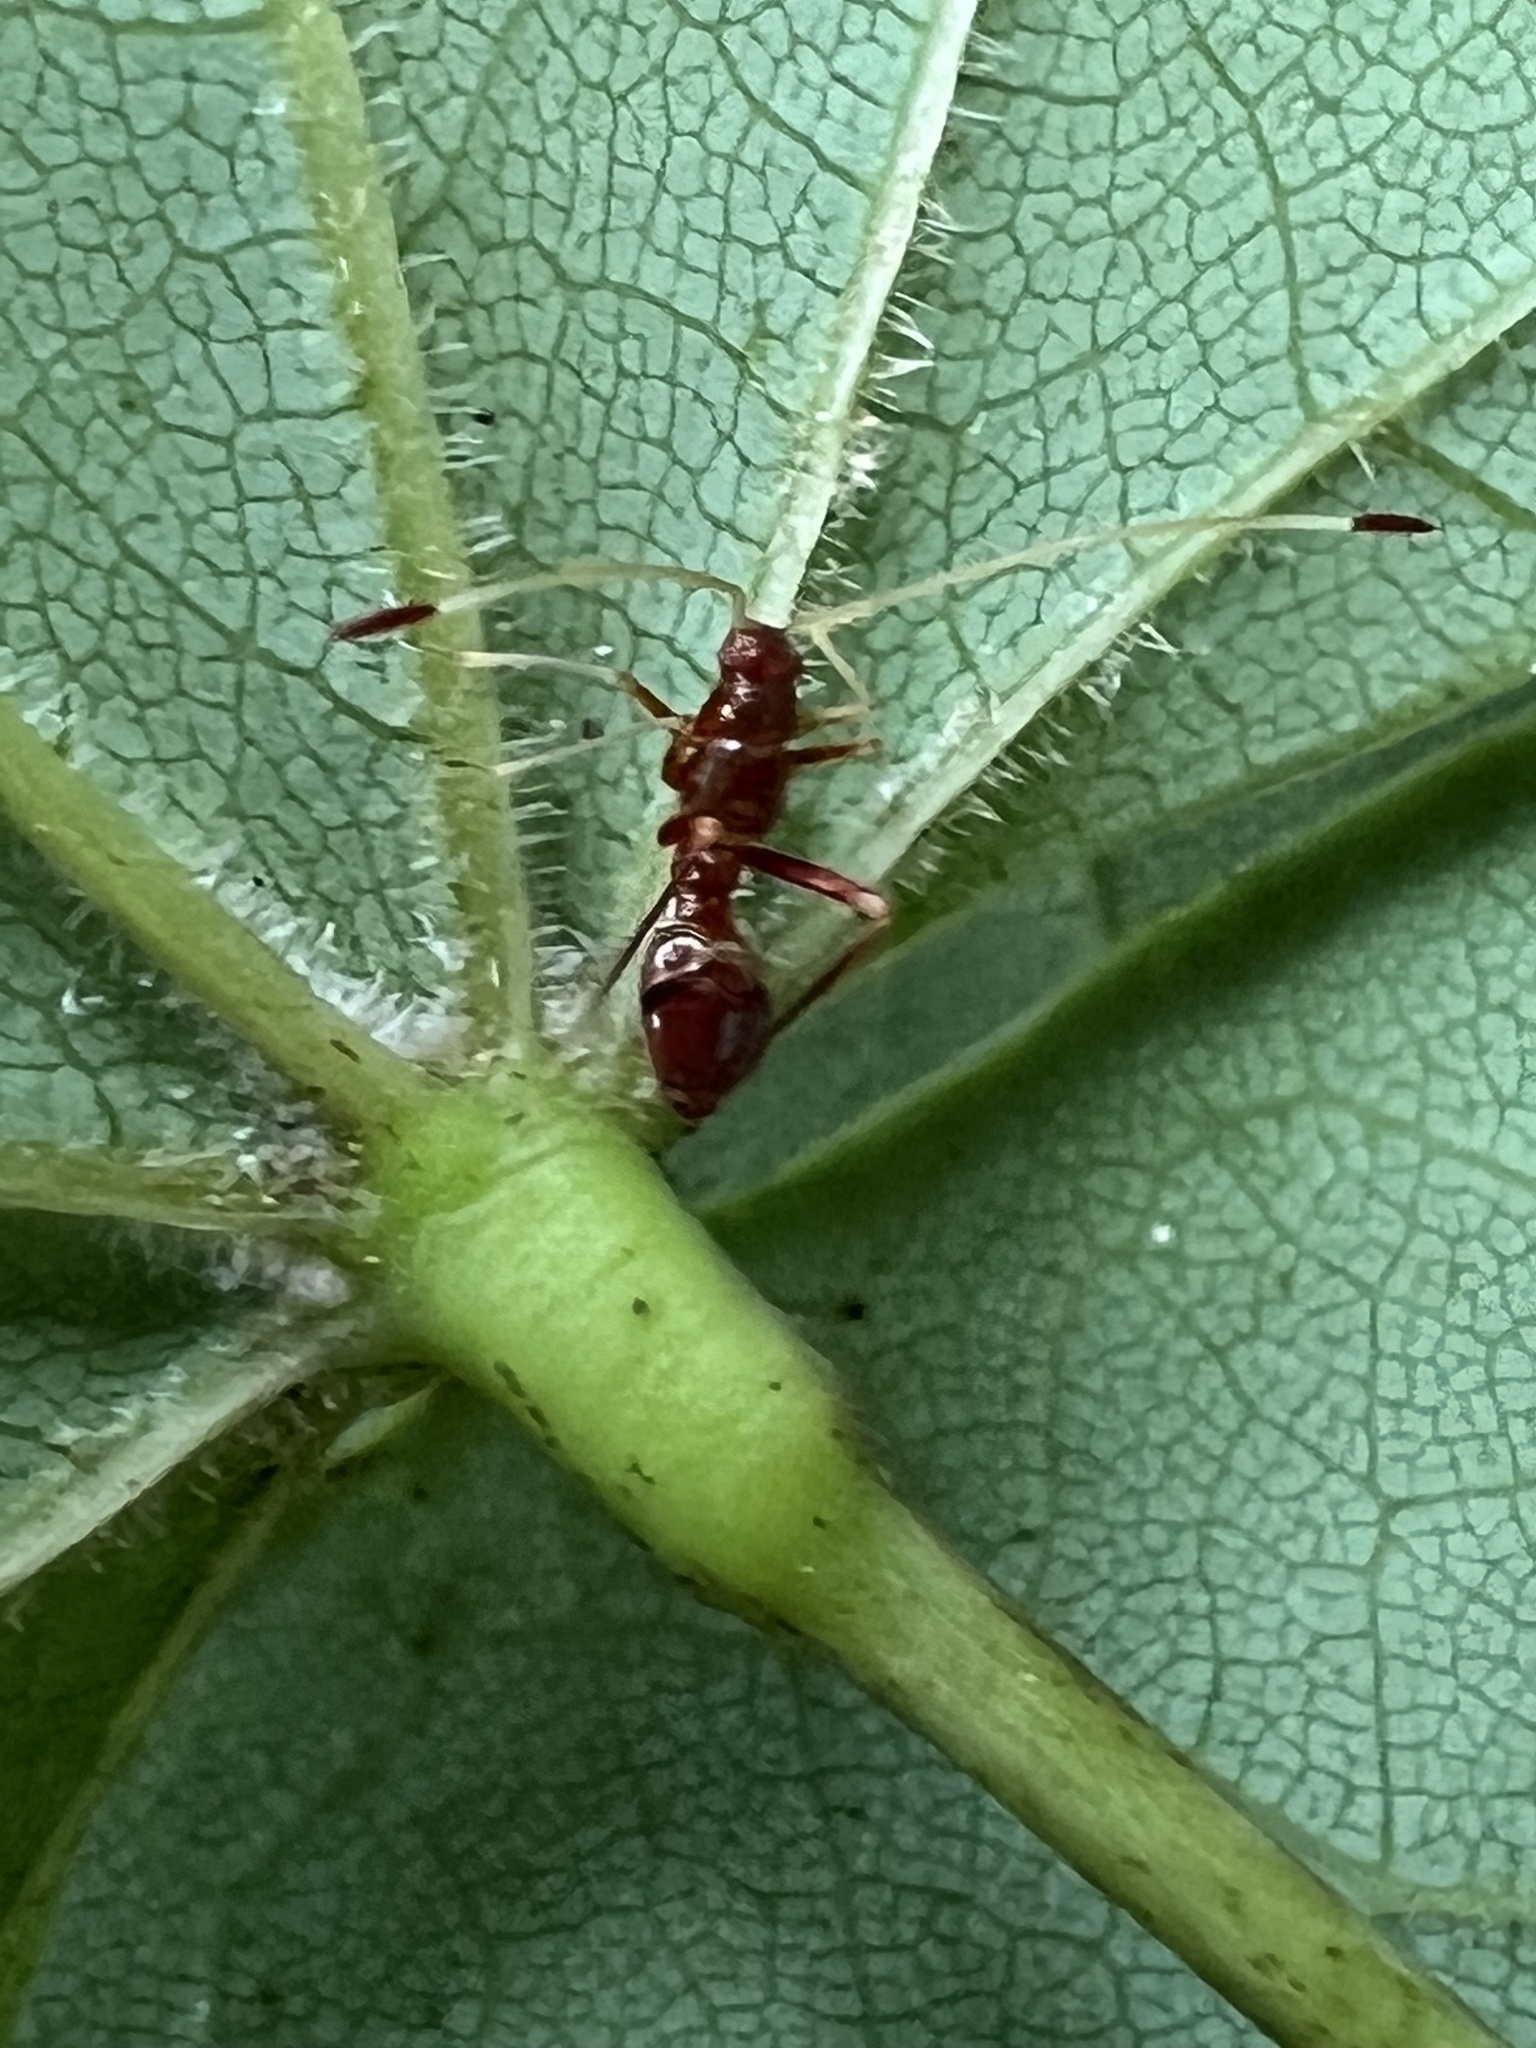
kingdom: Animalia
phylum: Arthropoda
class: Insecta
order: Hemiptera
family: Miridae
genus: Paraxenetus
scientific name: Paraxenetus guttulatus
